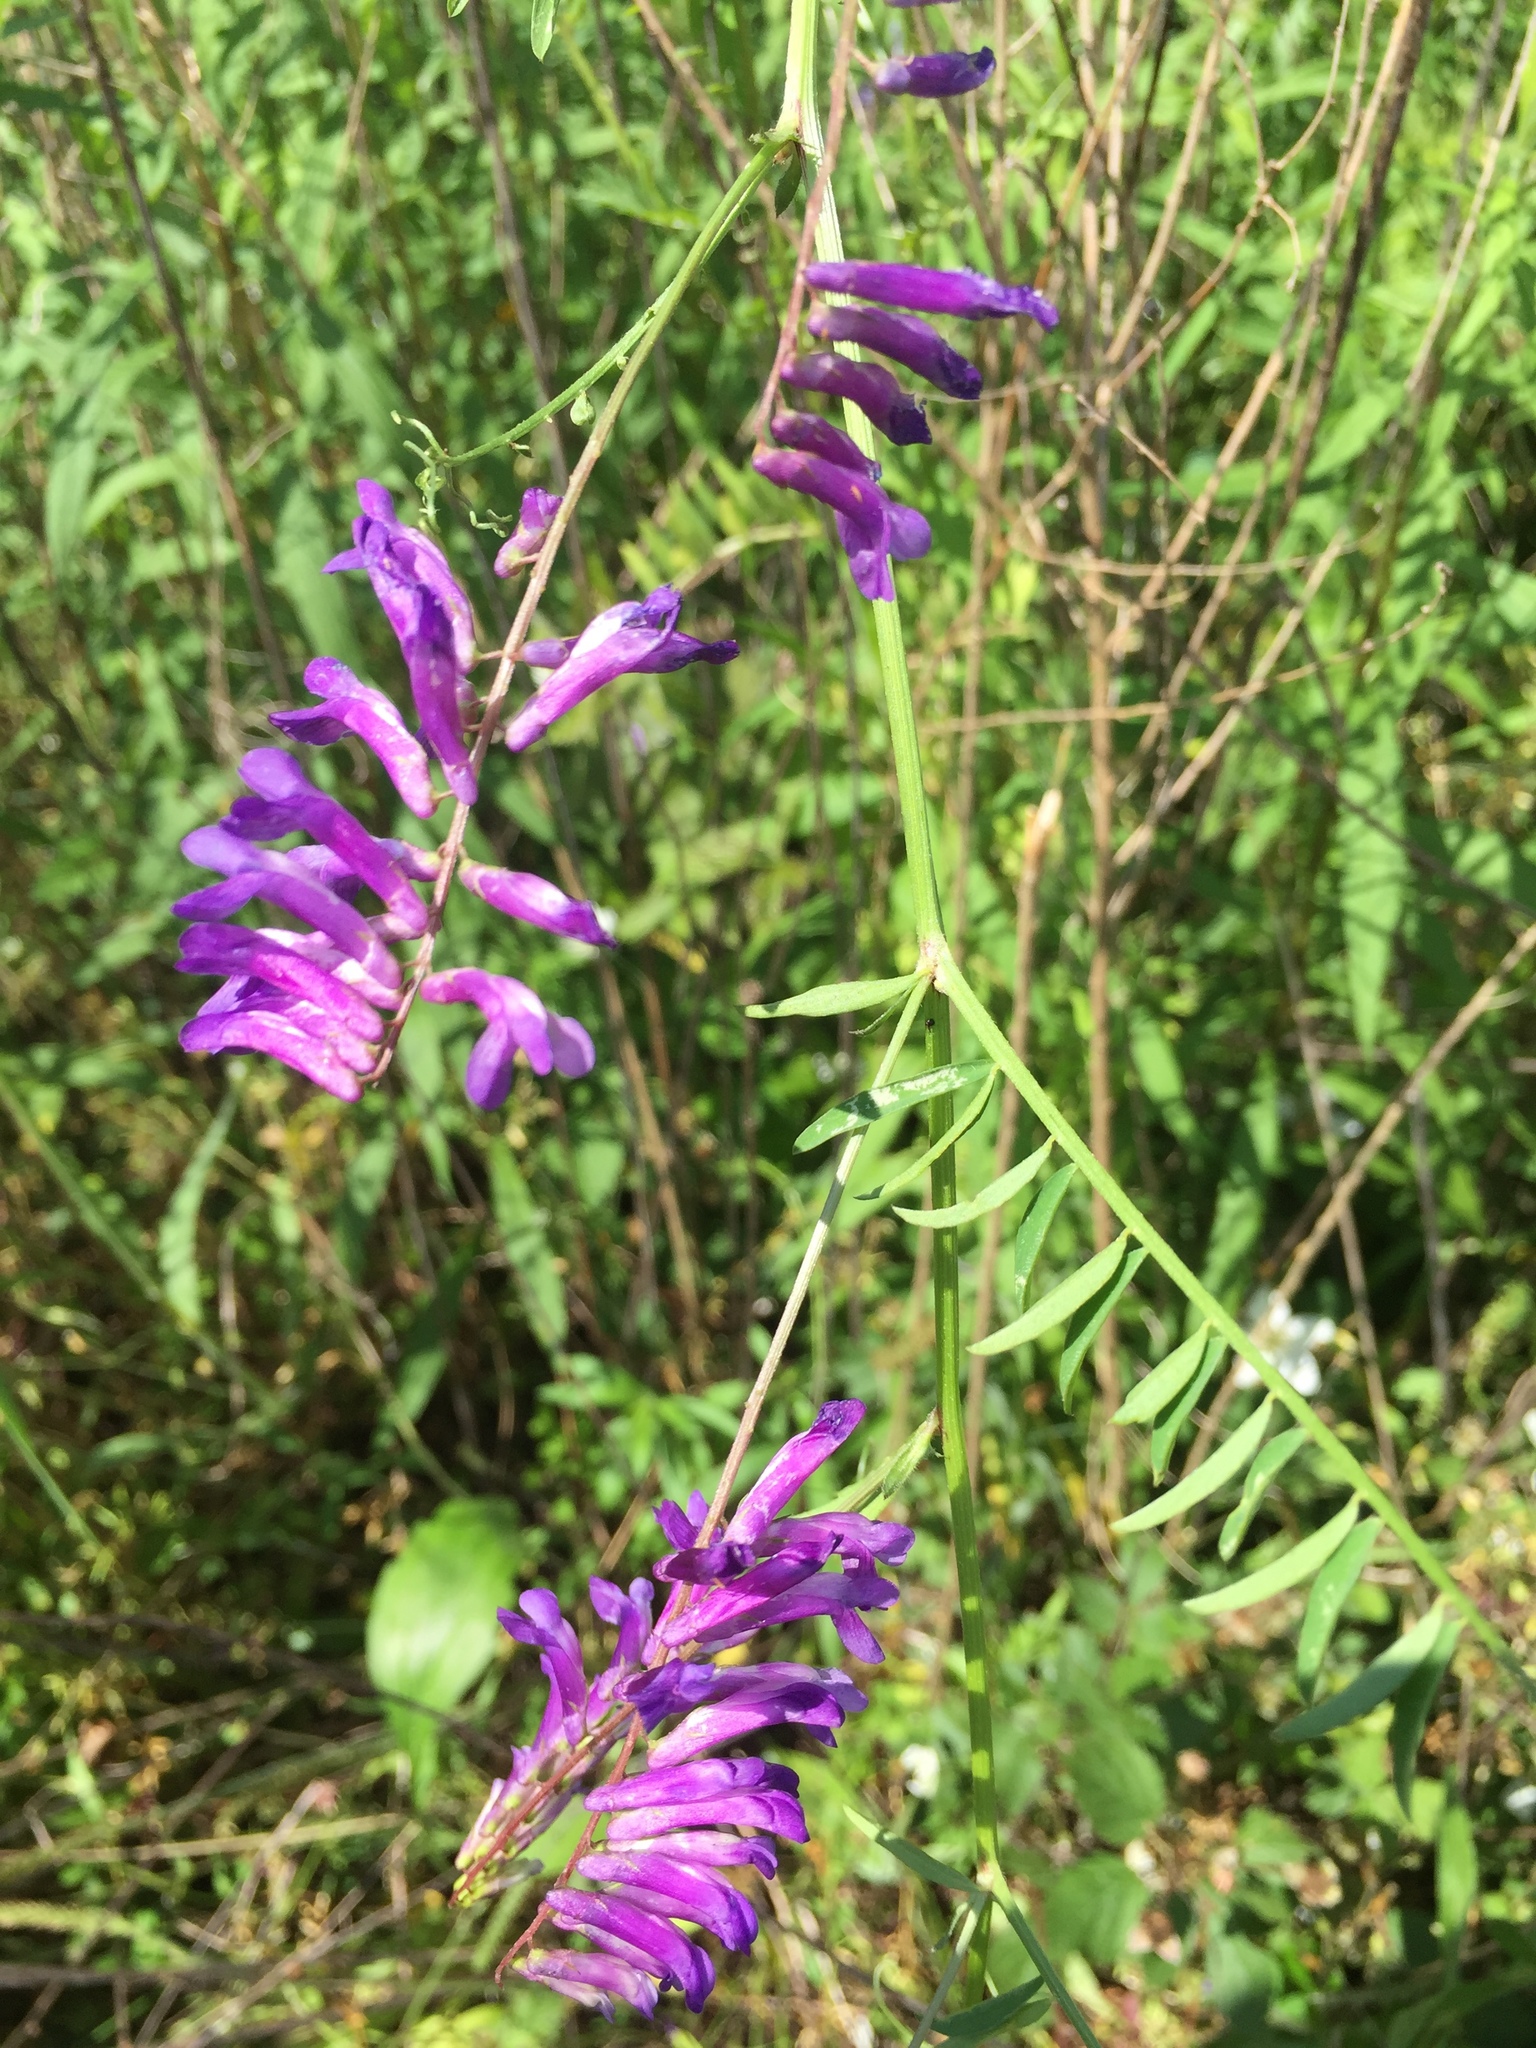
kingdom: Plantae
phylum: Tracheophyta
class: Magnoliopsida
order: Fabales
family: Fabaceae
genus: Vicia
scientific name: Vicia villosa
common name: Fodder vetch
